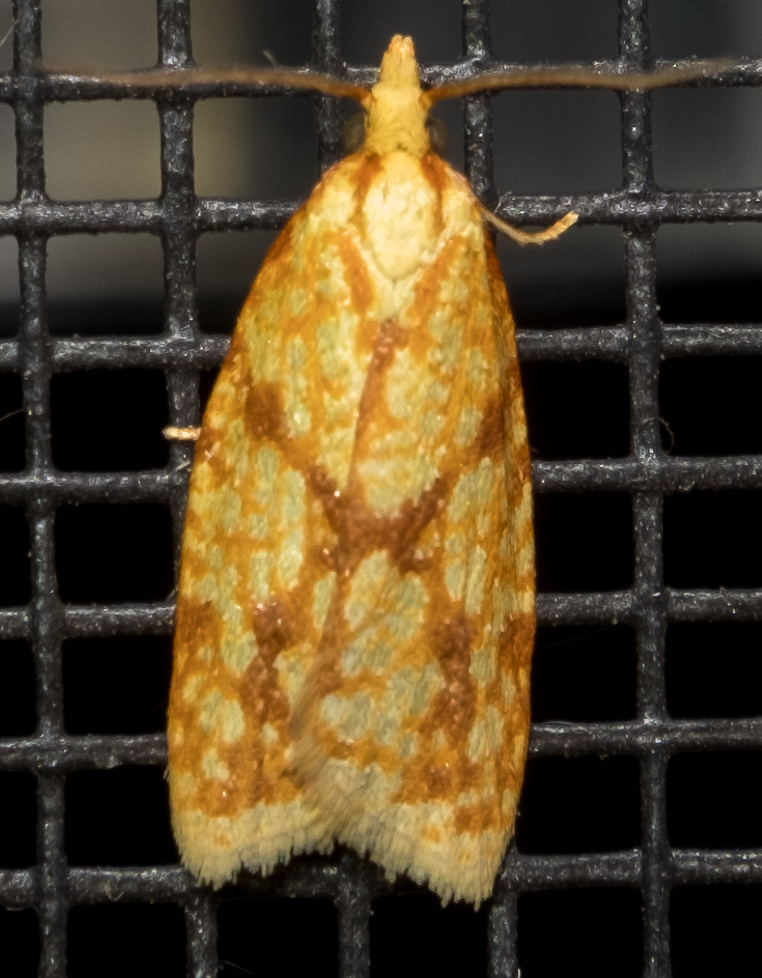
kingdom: Animalia
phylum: Arthropoda
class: Insecta
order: Lepidoptera
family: Tortricidae
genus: Sparganothis
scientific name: Sparganothis sulfureana
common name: Sparganothis fruitworm moth
